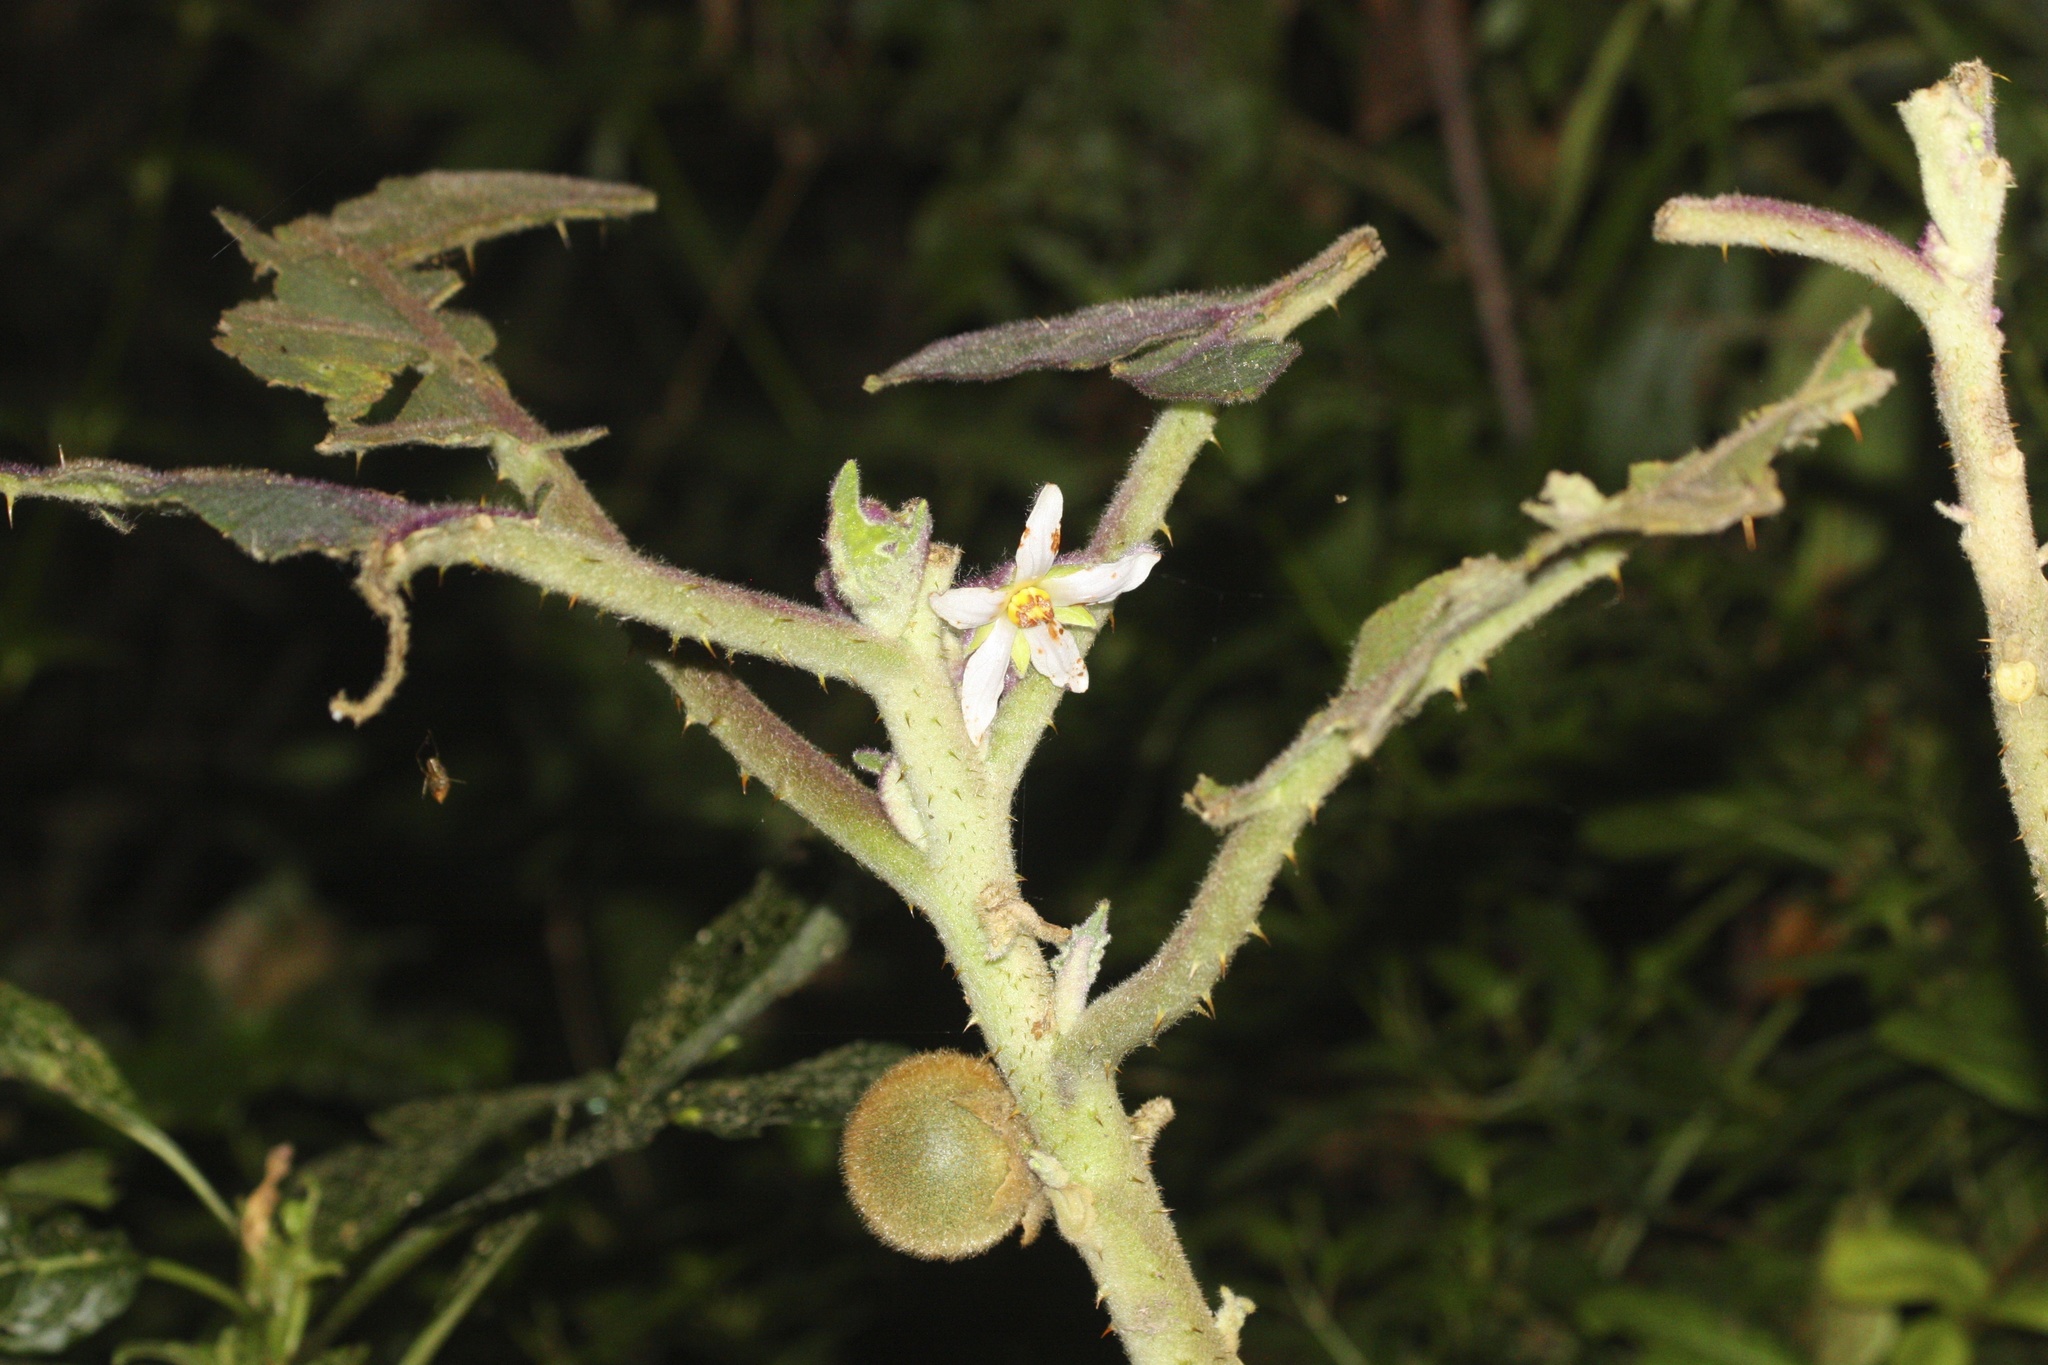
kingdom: Plantae
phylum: Tracheophyta
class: Magnoliopsida
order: Solanales
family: Solanaceae
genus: Solanum
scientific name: Solanum quitoense
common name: Quito-orange
